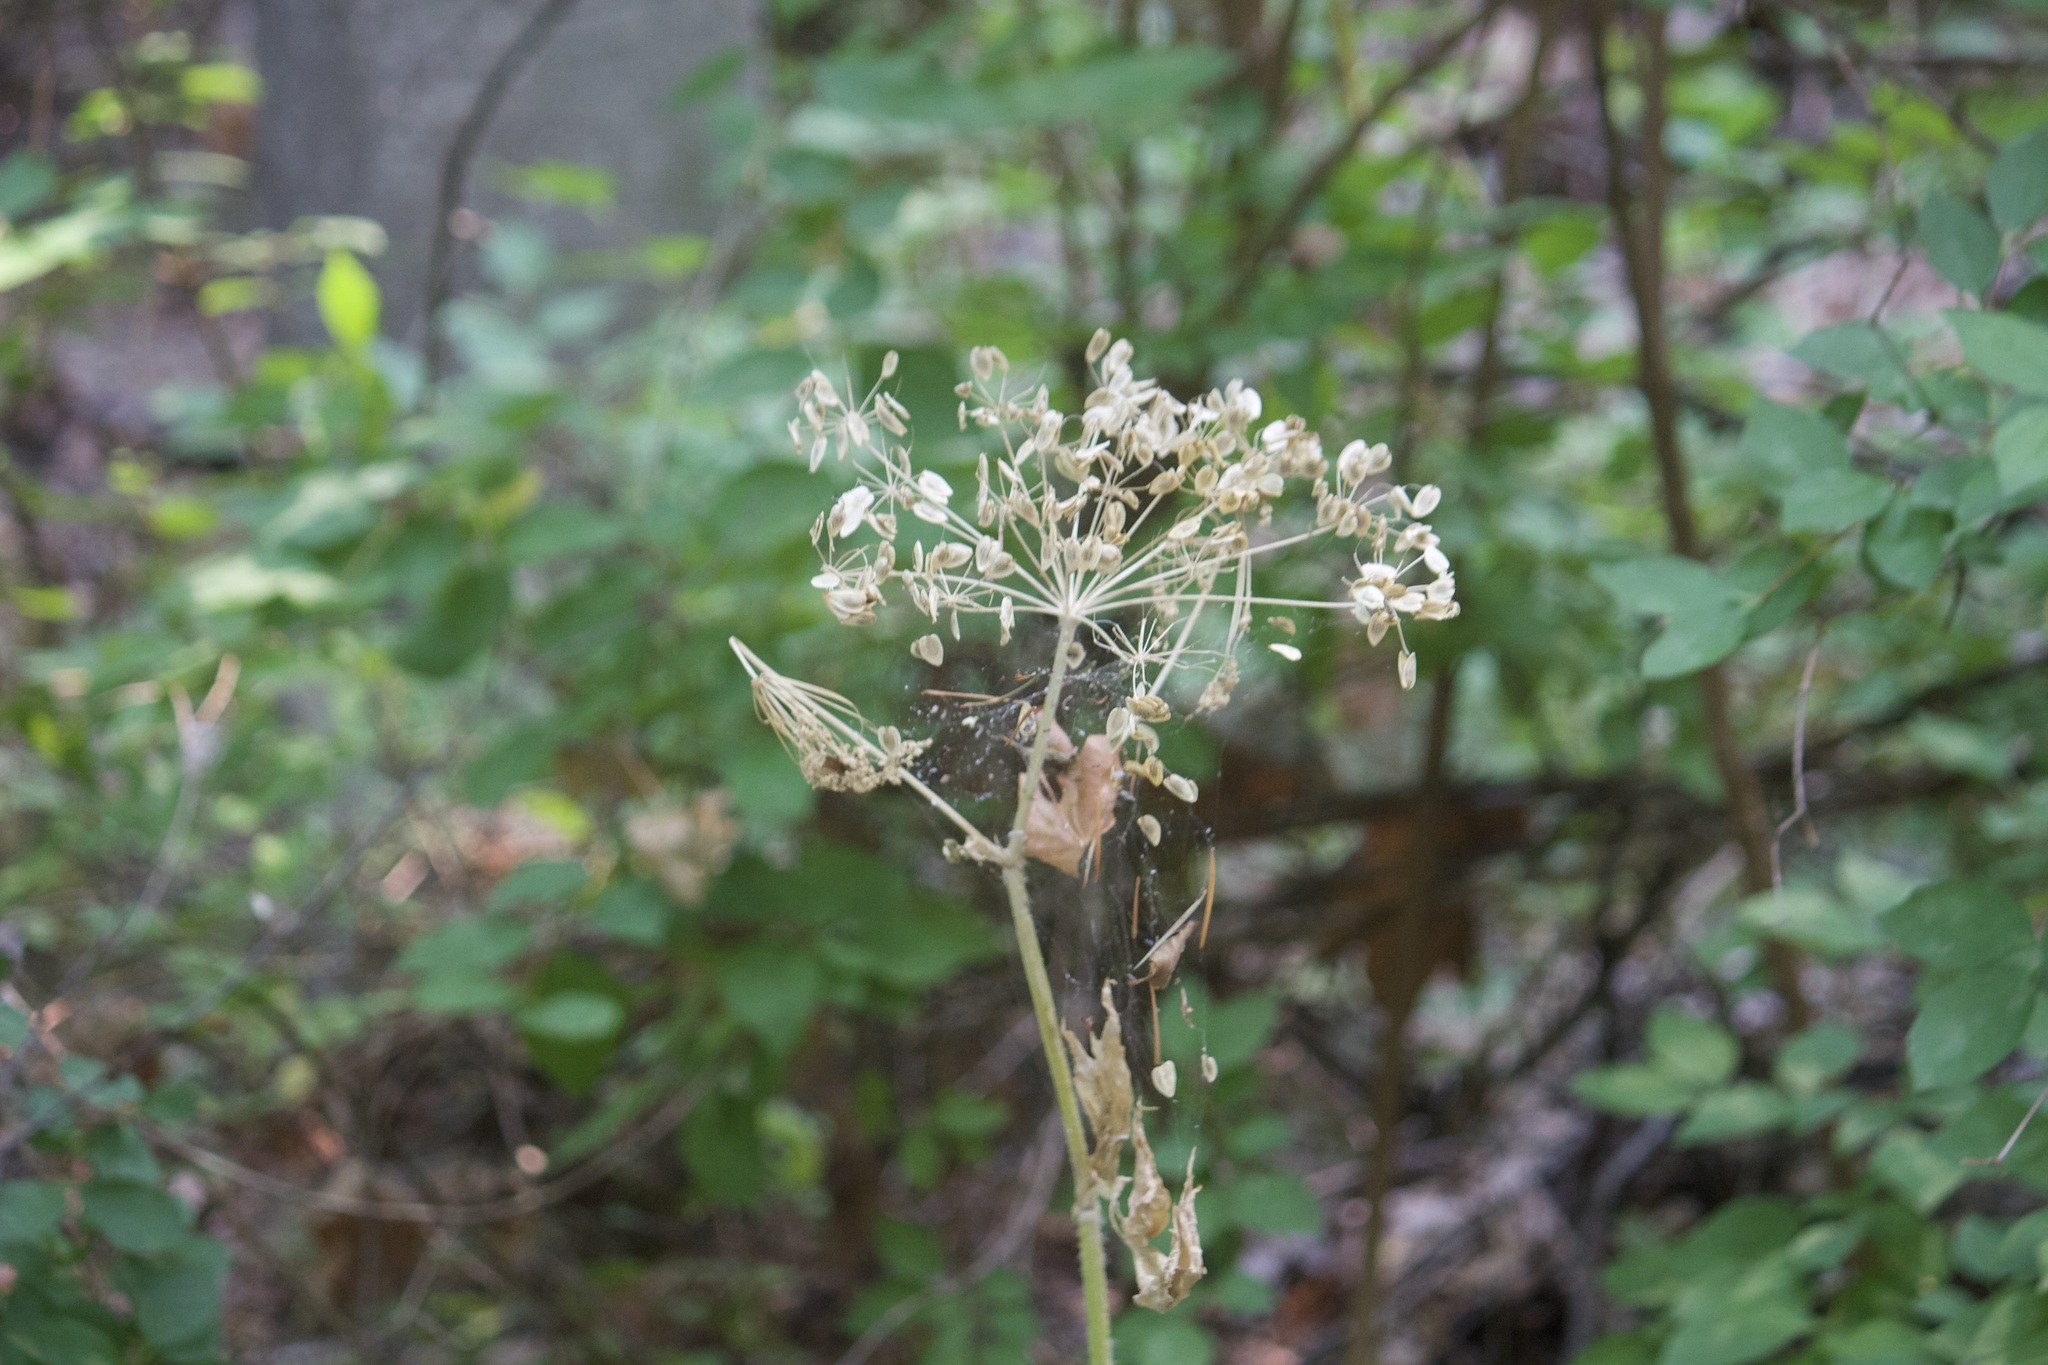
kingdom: Plantae
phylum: Tracheophyta
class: Magnoliopsida
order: Apiales
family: Apiaceae
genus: Heracleum
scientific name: Heracleum maximum
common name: American cow parsnip
